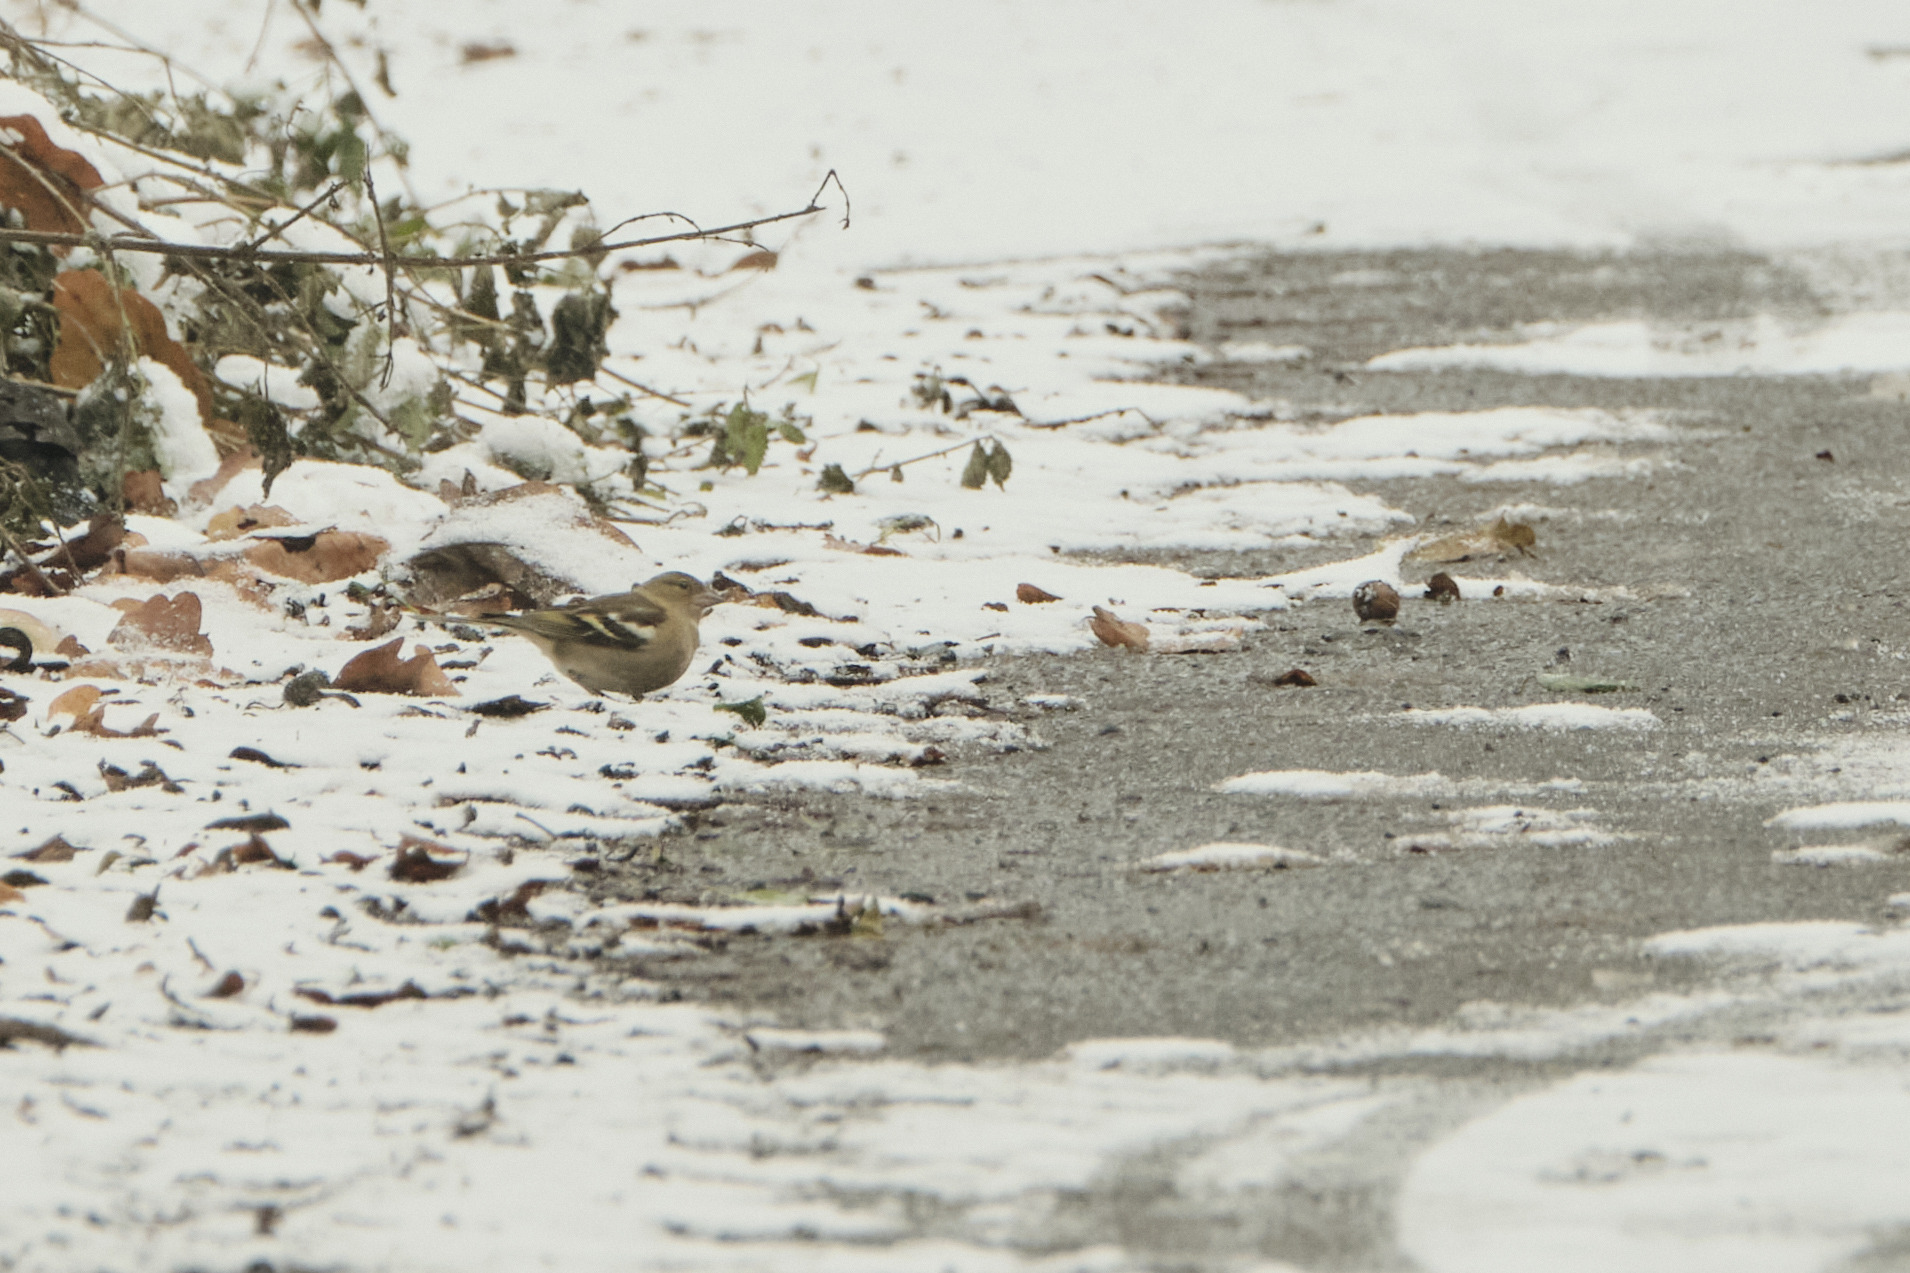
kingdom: Animalia
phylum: Chordata
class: Aves
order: Passeriformes
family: Fringillidae
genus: Fringilla
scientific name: Fringilla coelebs
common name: Common chaffinch
